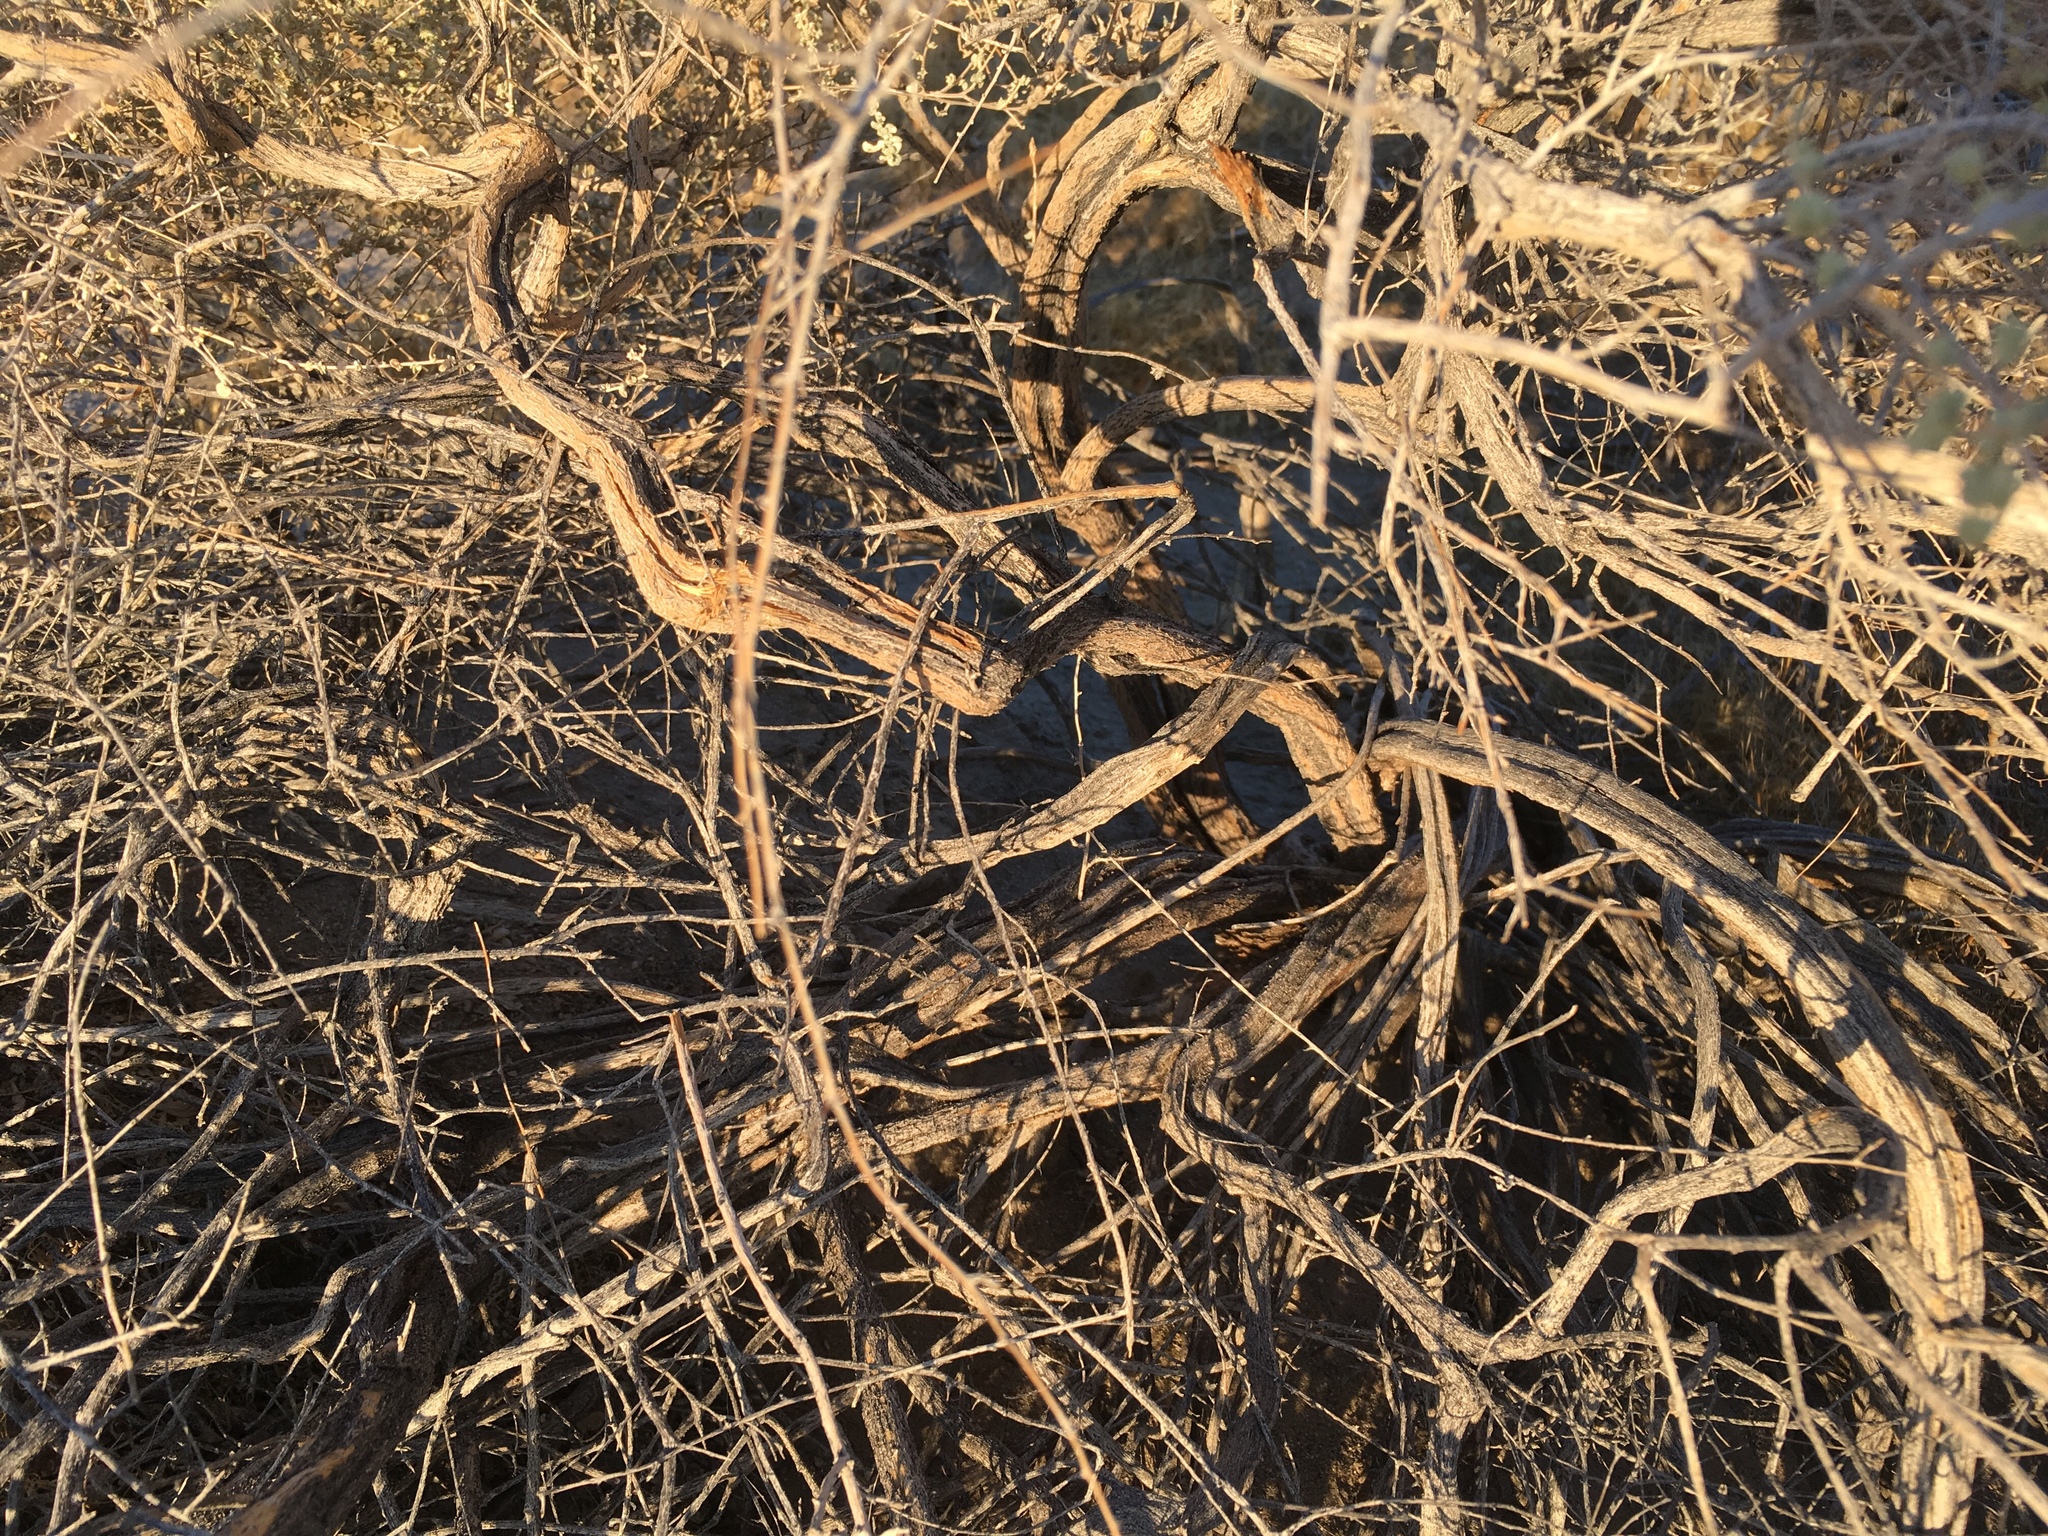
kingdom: Plantae
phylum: Tracheophyta
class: Magnoliopsida
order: Caryophyllales
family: Amaranthaceae
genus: Atriplex
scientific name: Atriplex polycarpa
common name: Desert saltbush
